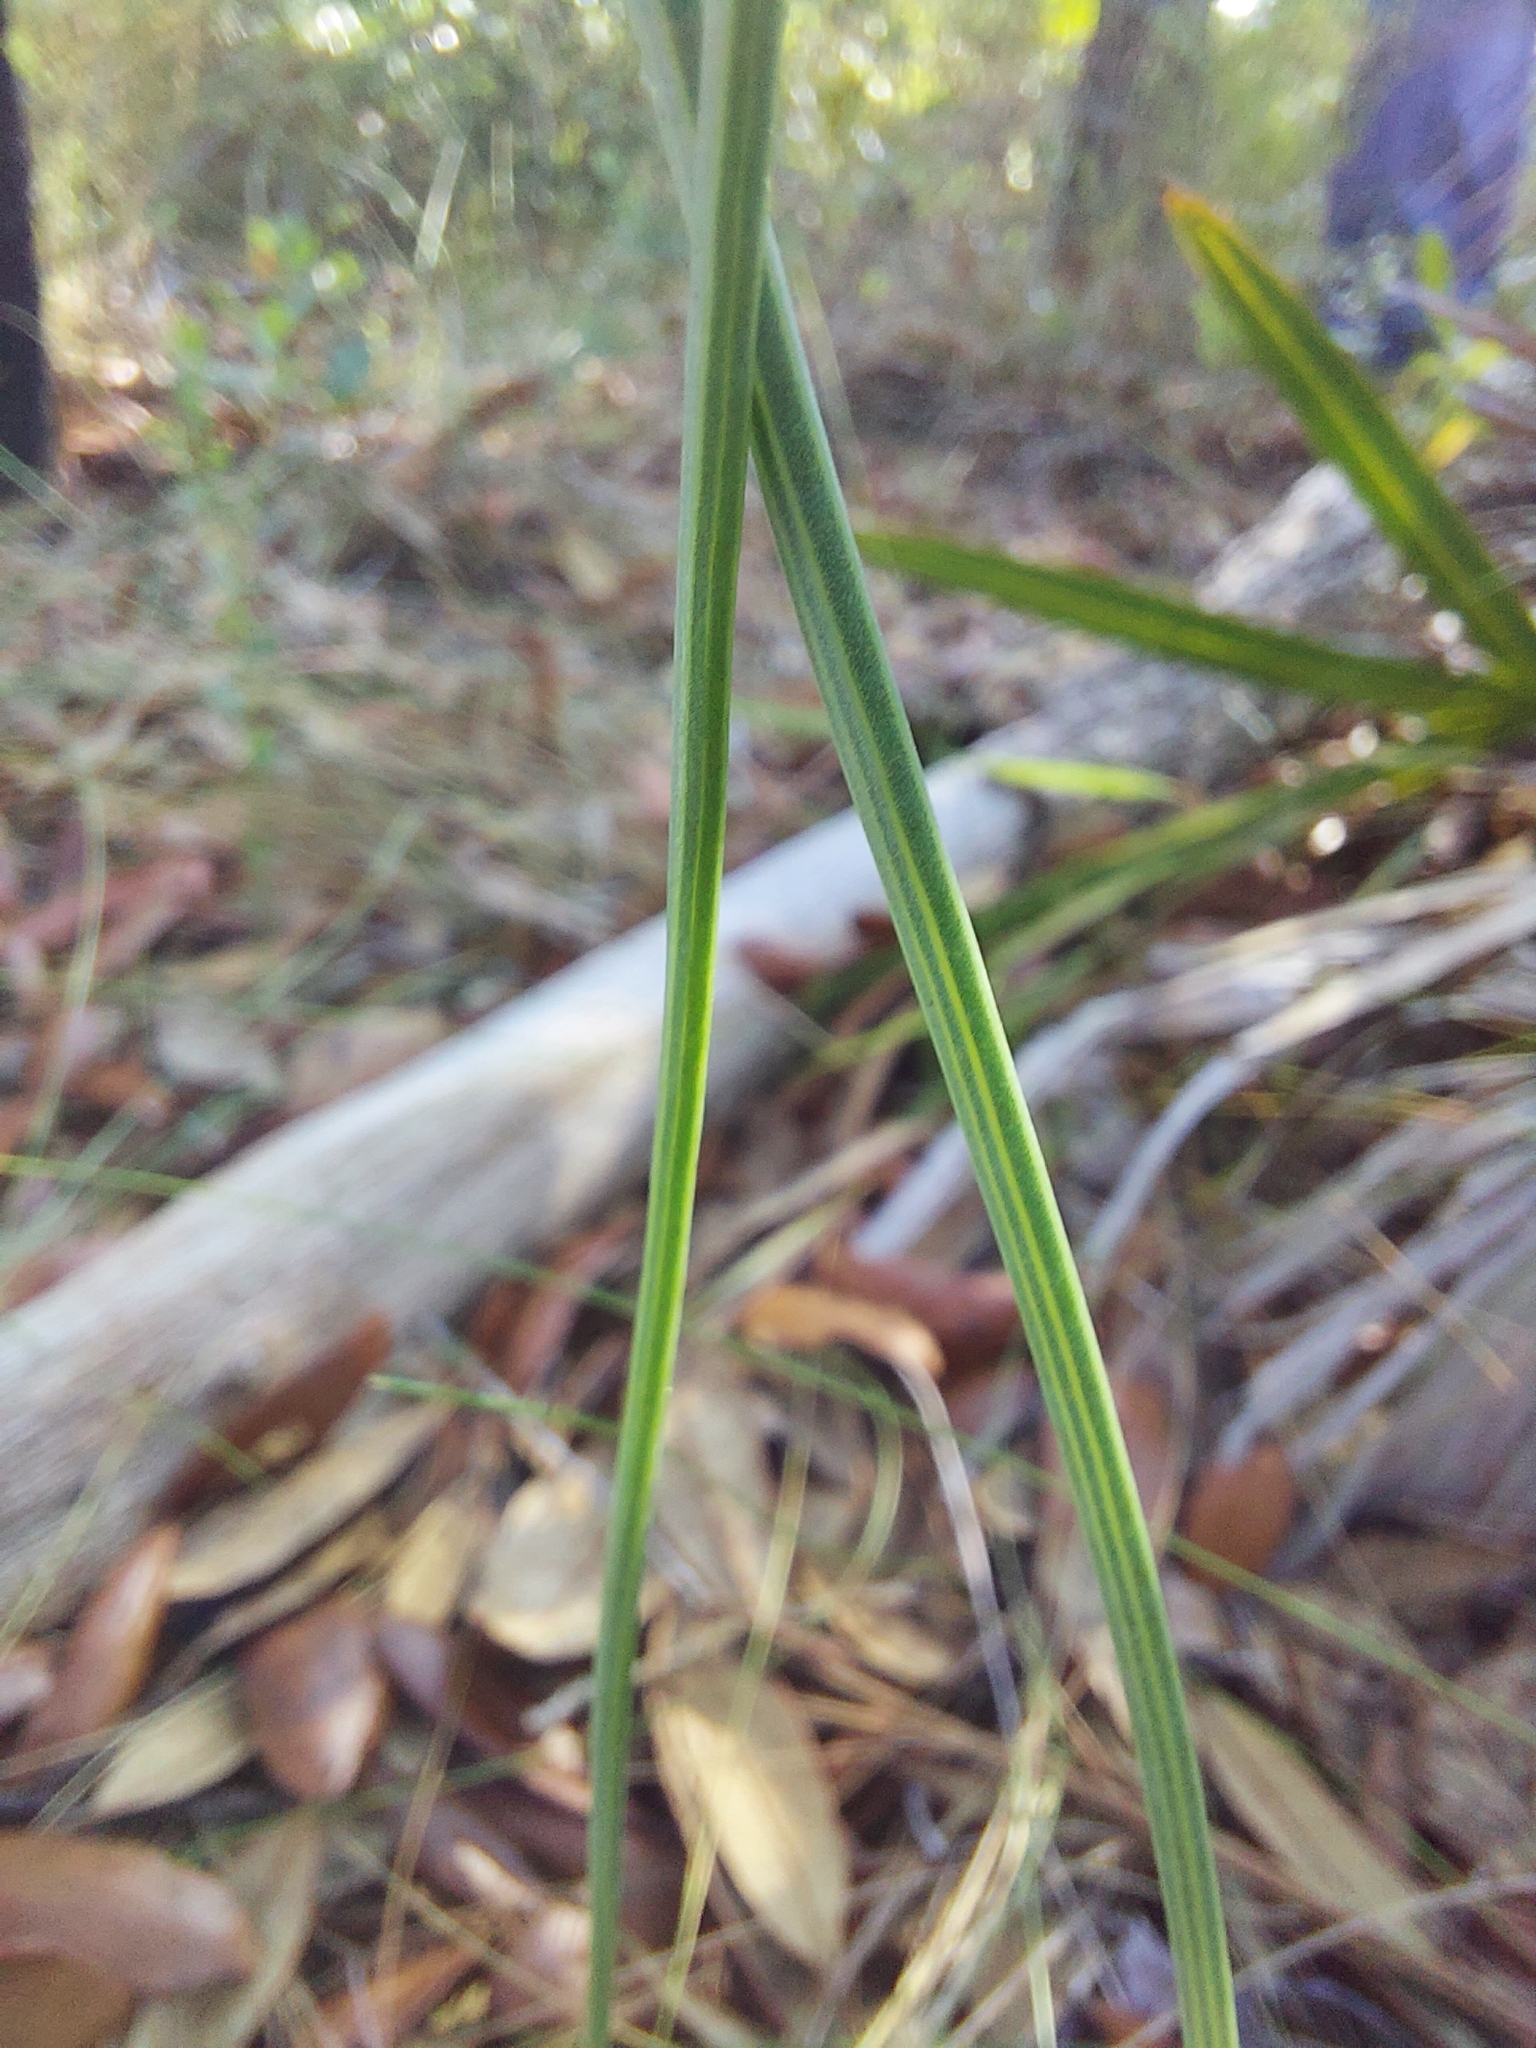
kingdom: Plantae
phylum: Tracheophyta
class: Magnoliopsida
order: Asterales
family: Asteraceae
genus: Lygodesmia
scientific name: Lygodesmia aphylla
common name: Rose-rush
